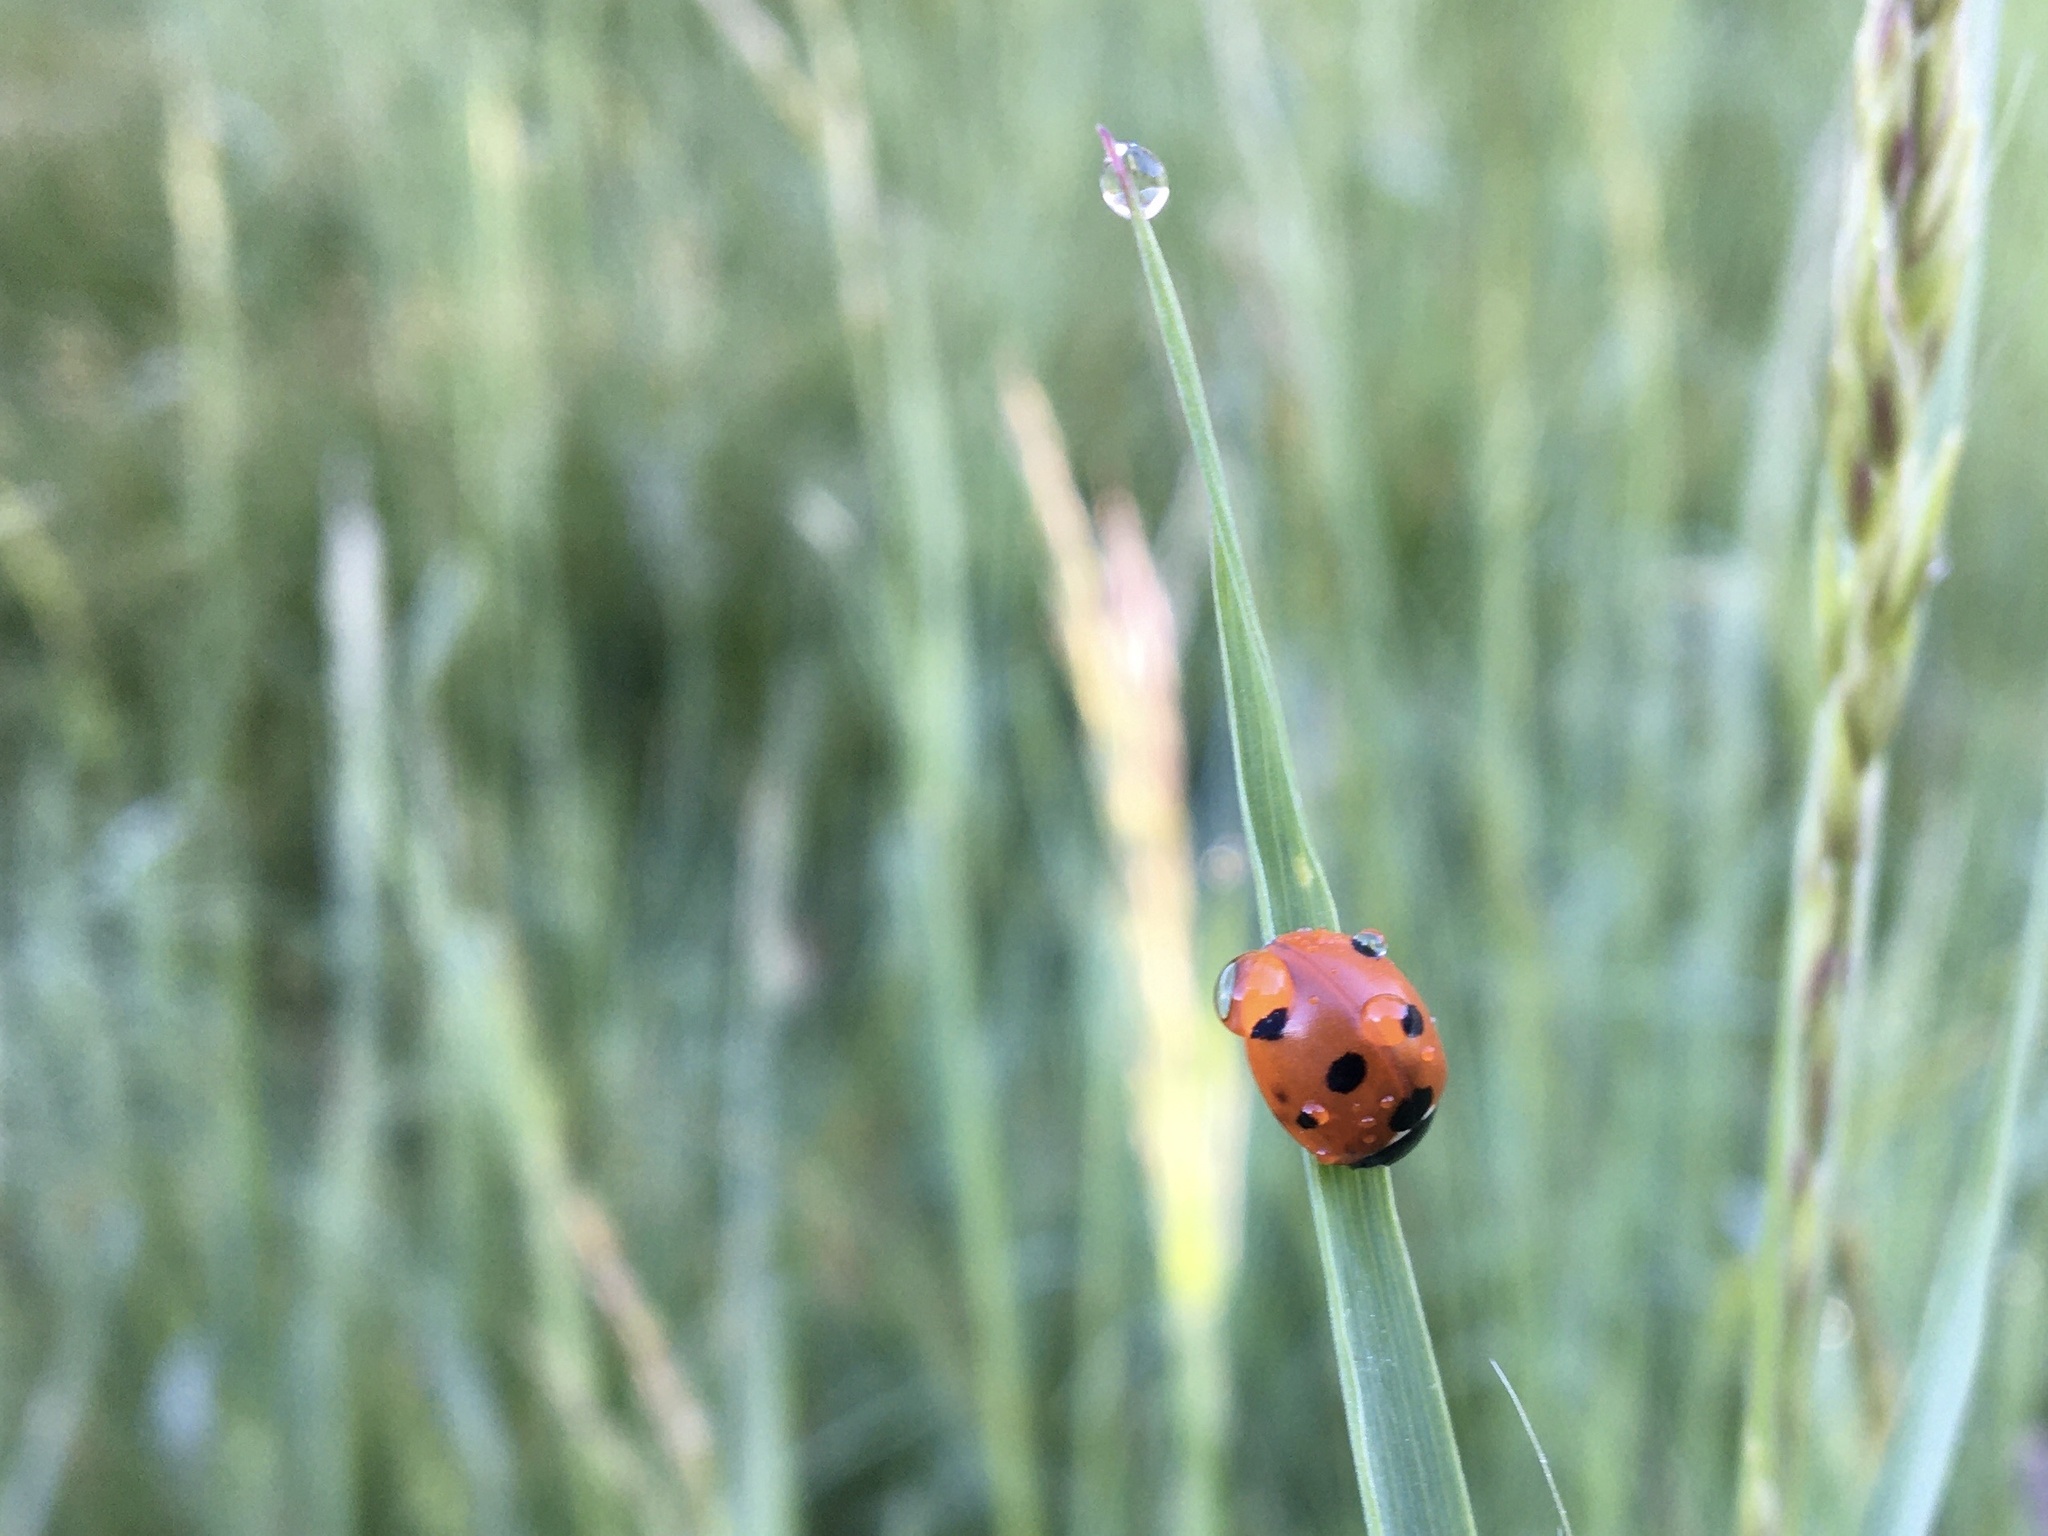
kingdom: Animalia
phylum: Arthropoda
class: Insecta
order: Coleoptera
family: Coccinellidae
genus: Coccinella
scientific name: Coccinella septempunctata
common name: Sevenspotted lady beetle
